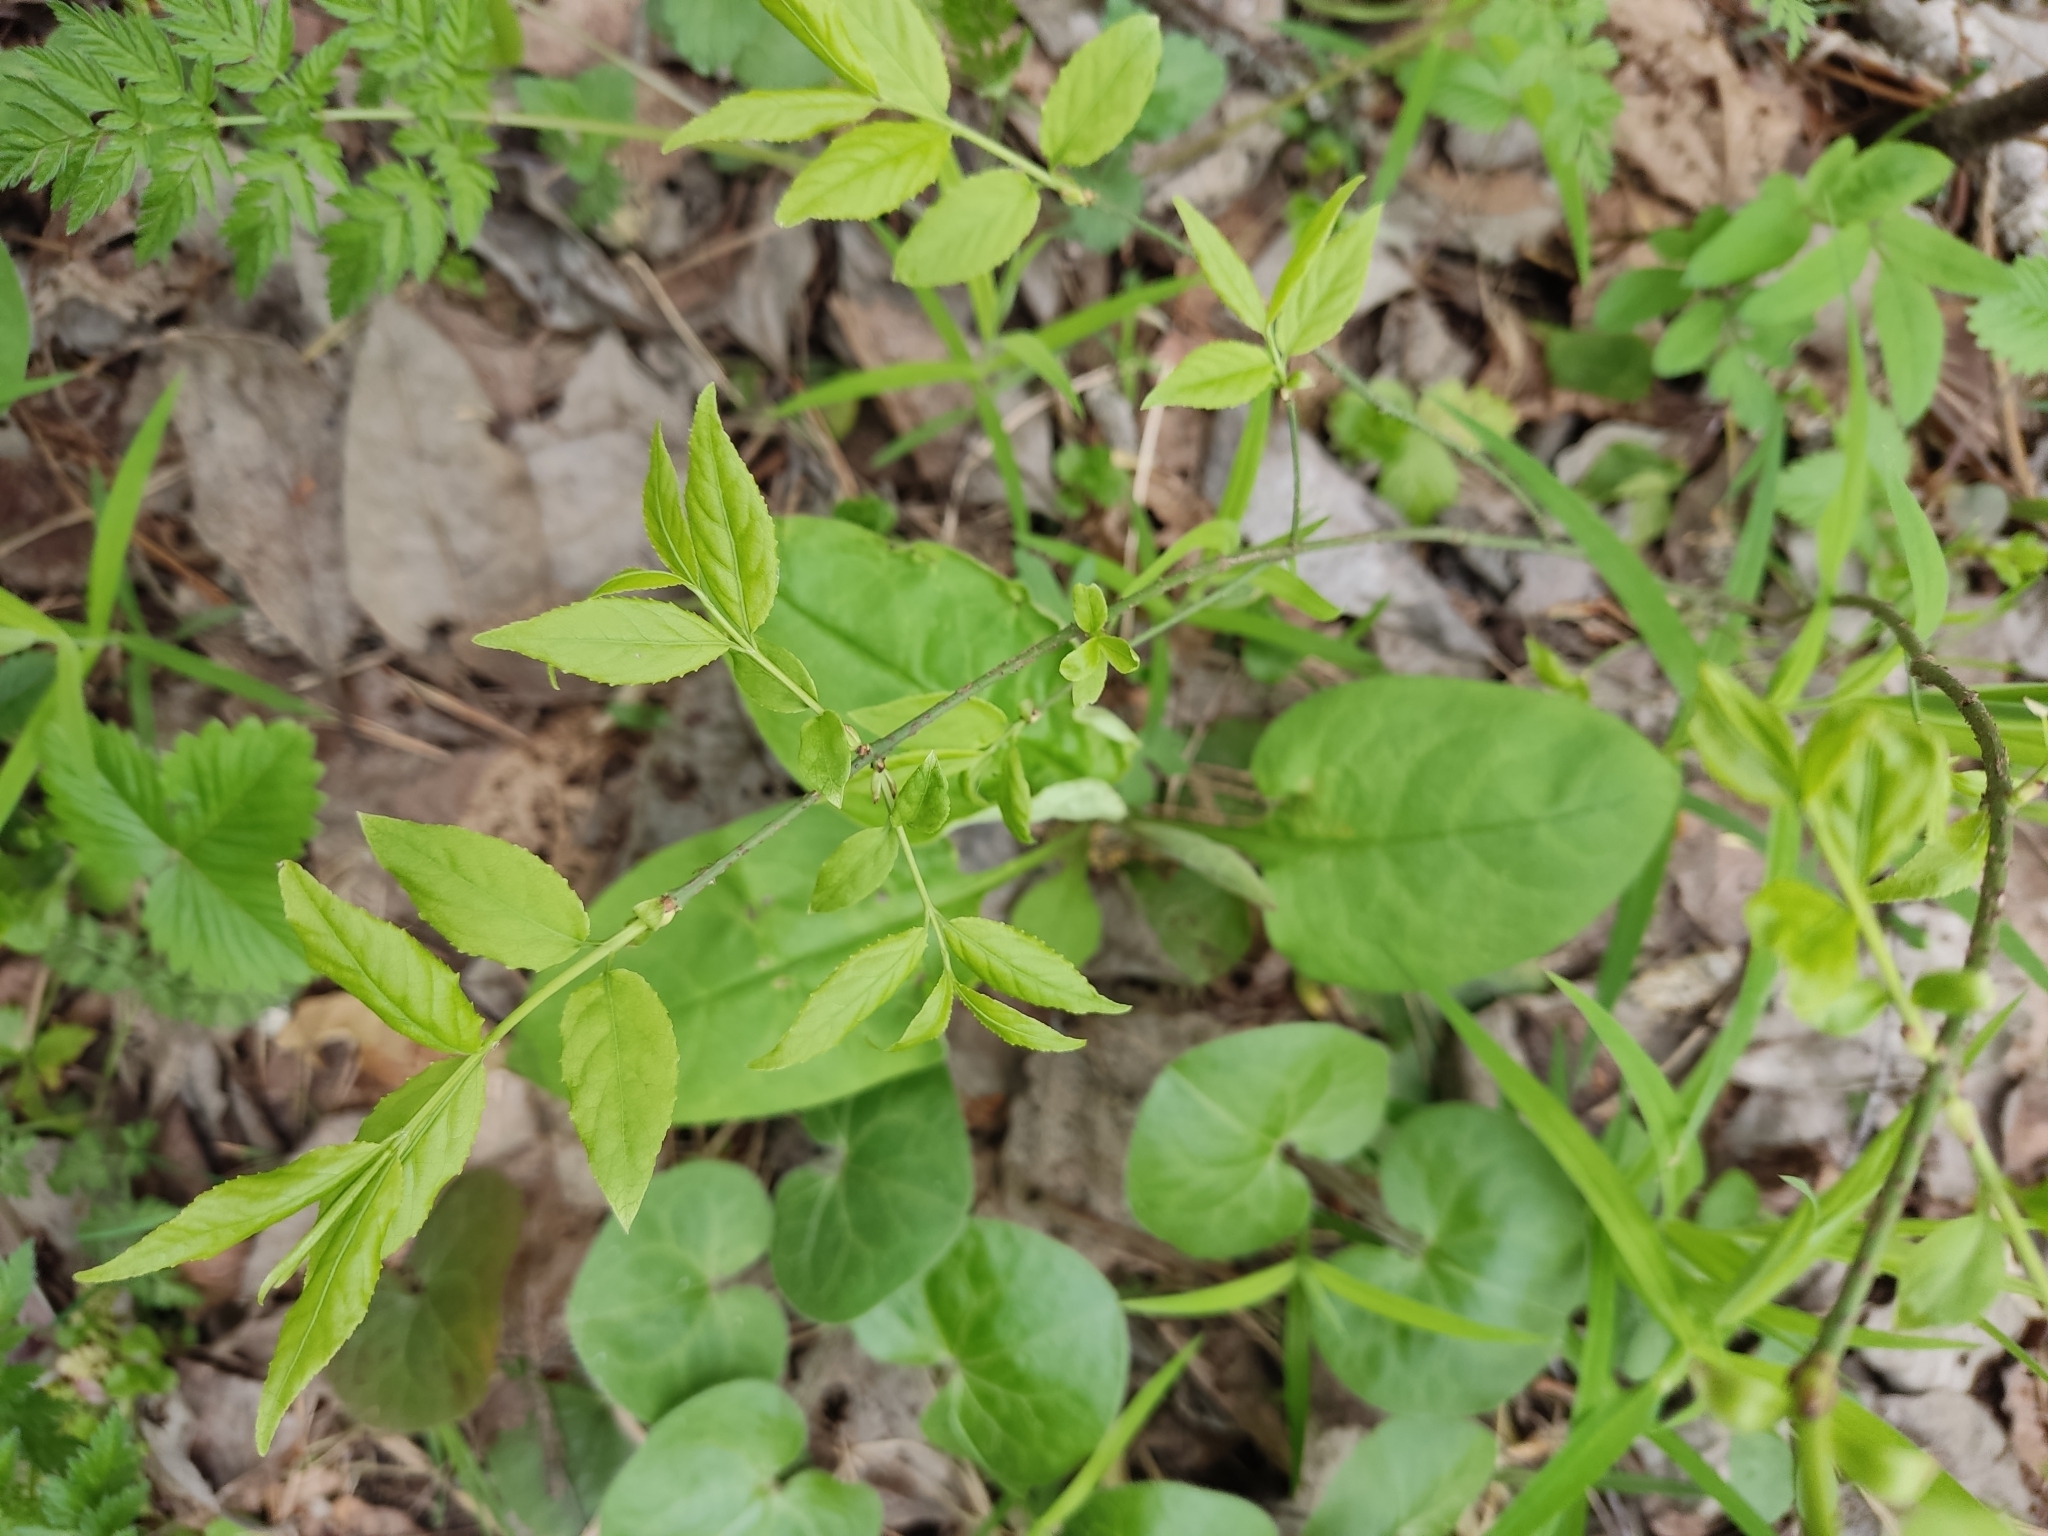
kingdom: Plantae
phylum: Tracheophyta
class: Magnoliopsida
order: Celastrales
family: Celastraceae
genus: Euonymus
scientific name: Euonymus verrucosus
